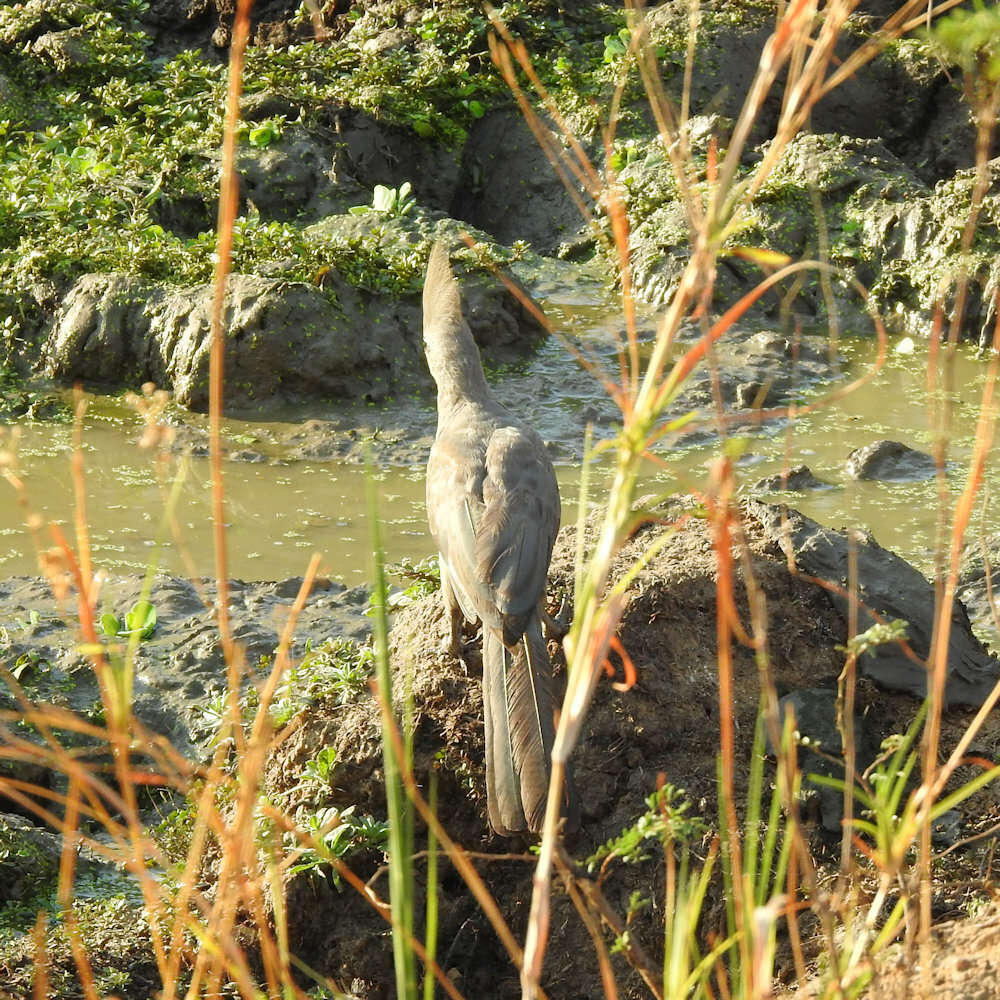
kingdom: Animalia
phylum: Chordata
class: Aves
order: Musophagiformes
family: Musophagidae
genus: Corythaixoides
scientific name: Corythaixoides concolor
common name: Grey go-away-bird
